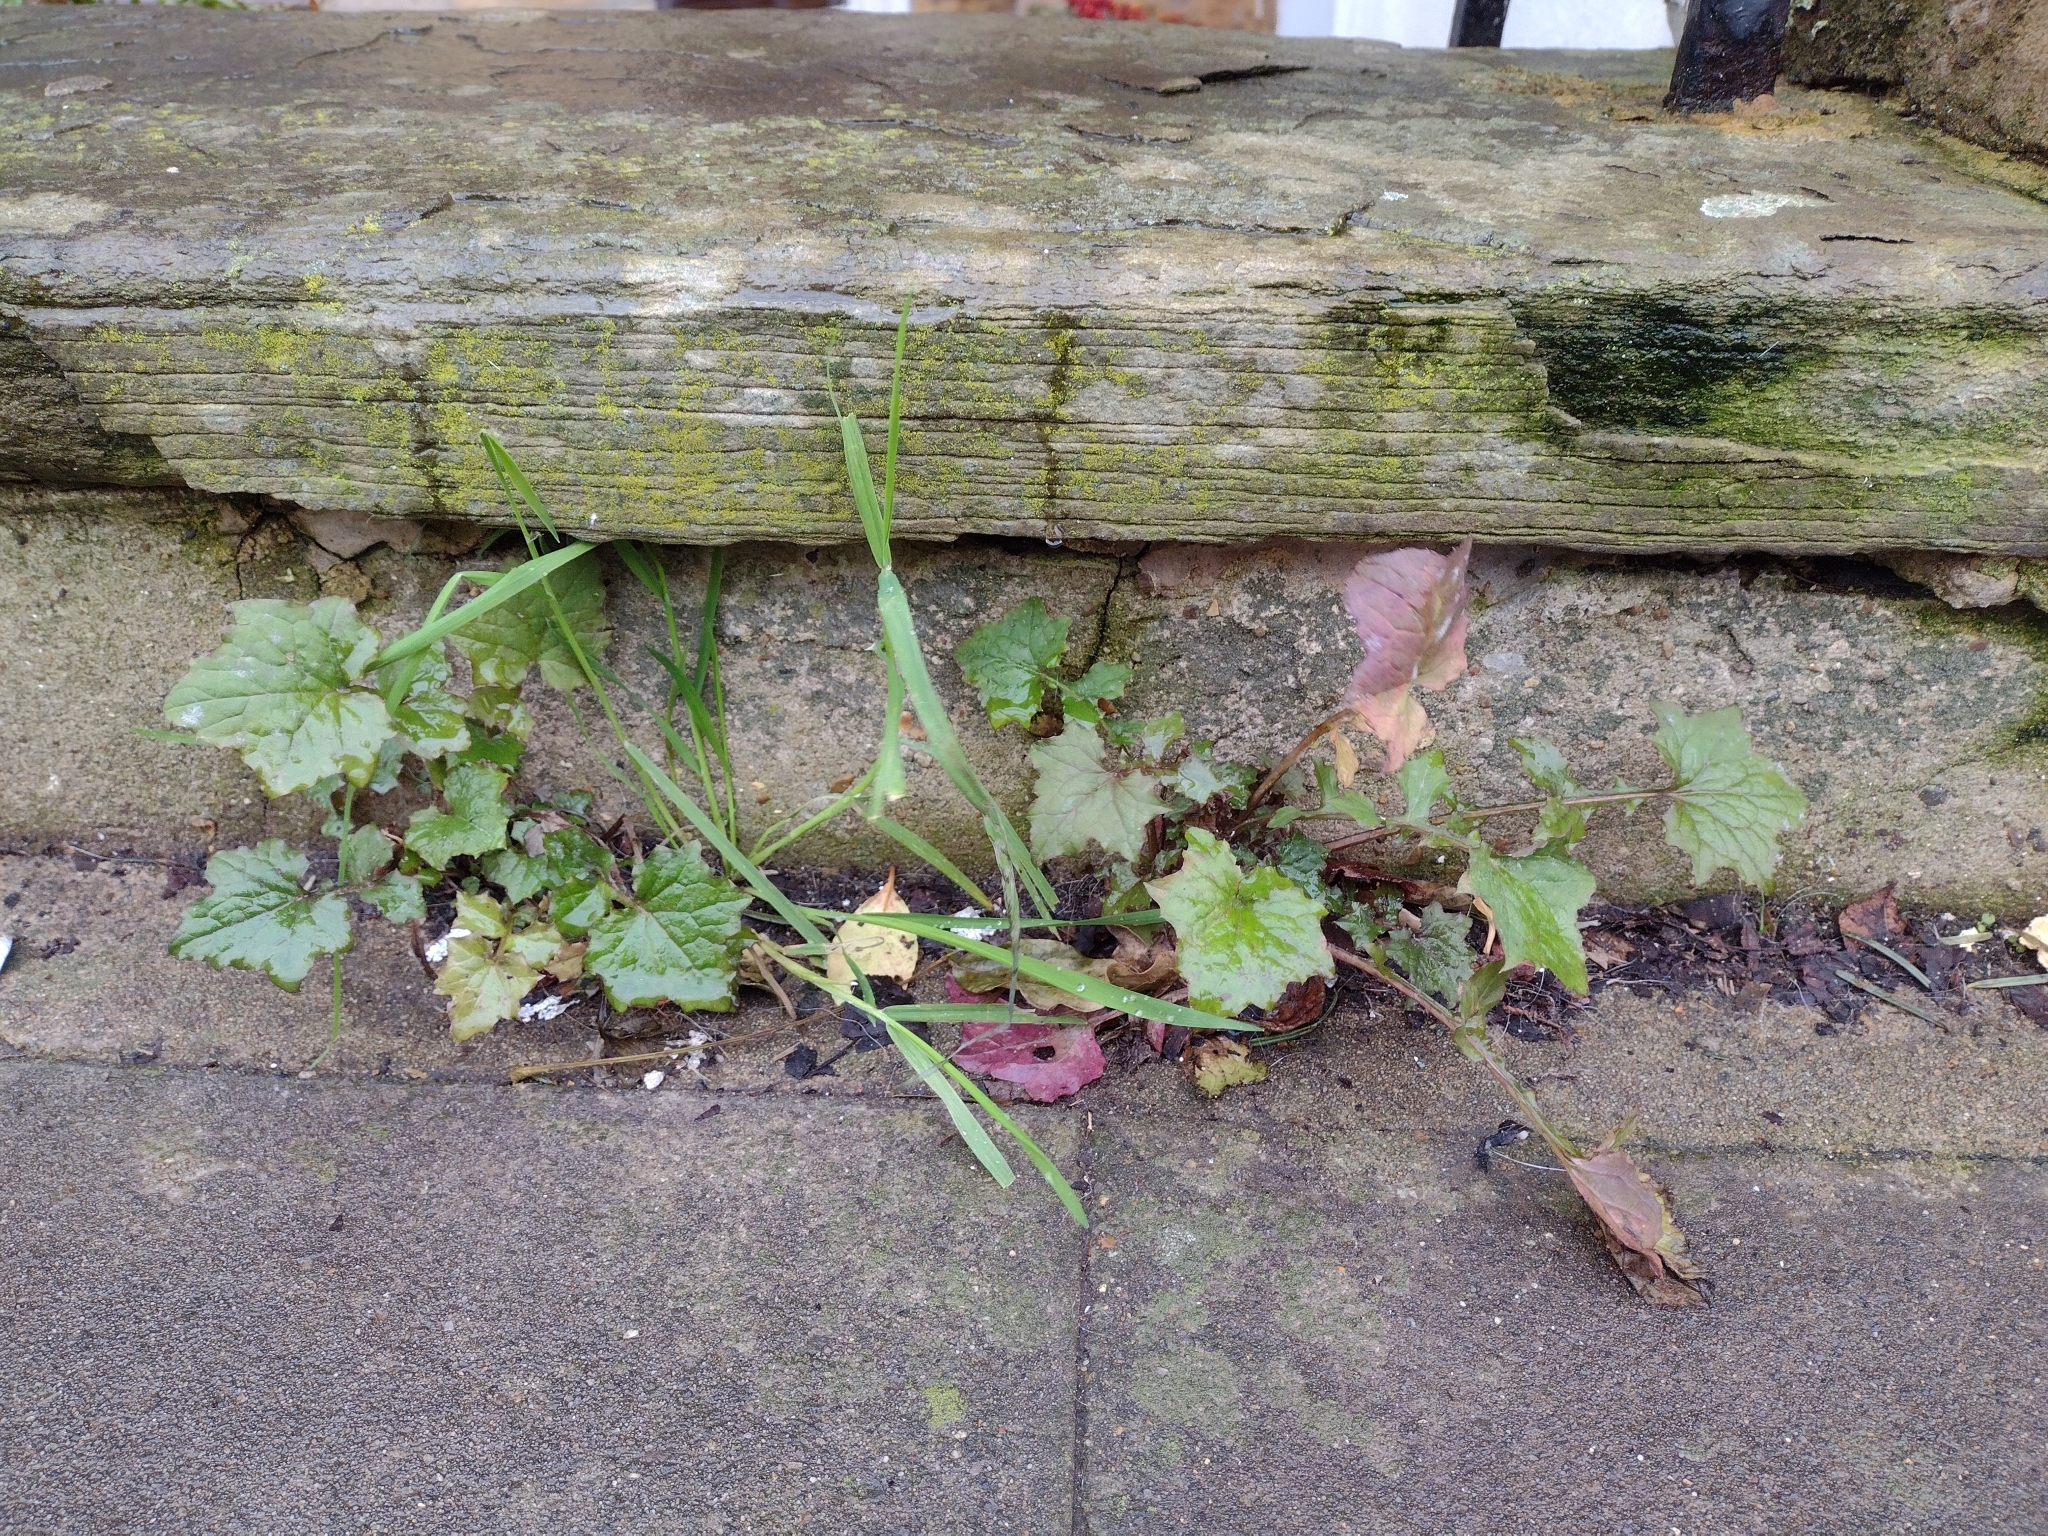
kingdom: Plantae
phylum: Tracheophyta
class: Magnoliopsida
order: Asterales
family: Asteraceae
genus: Mycelis
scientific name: Mycelis muralis
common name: Wall lettuce
